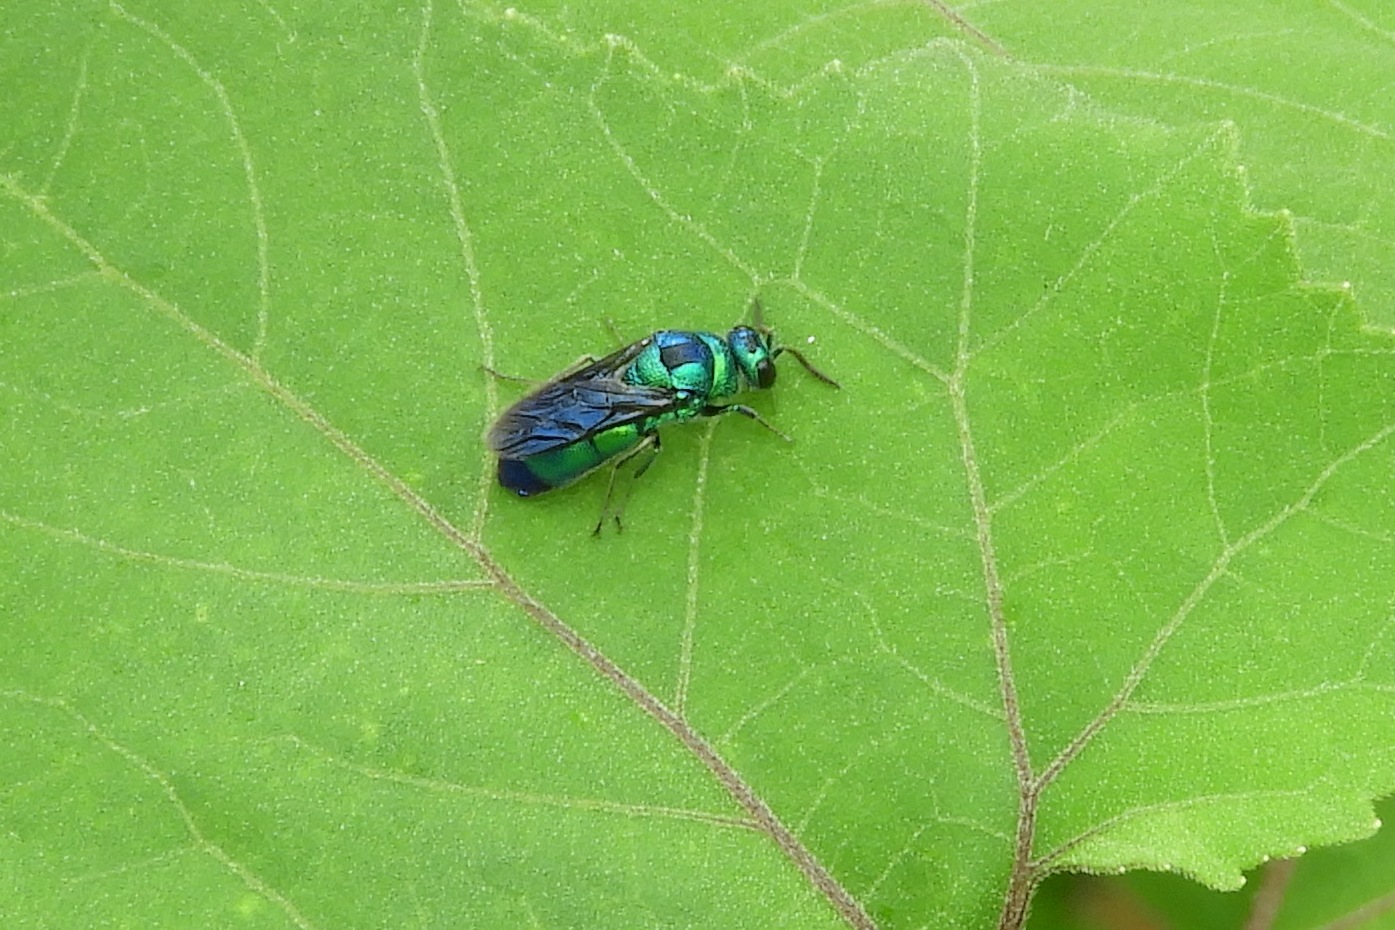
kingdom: Animalia
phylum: Arthropoda
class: Insecta
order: Hymenoptera
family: Chrysididae
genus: Chrysis
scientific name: Chrysis angolensis
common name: Cuckoo wasp
